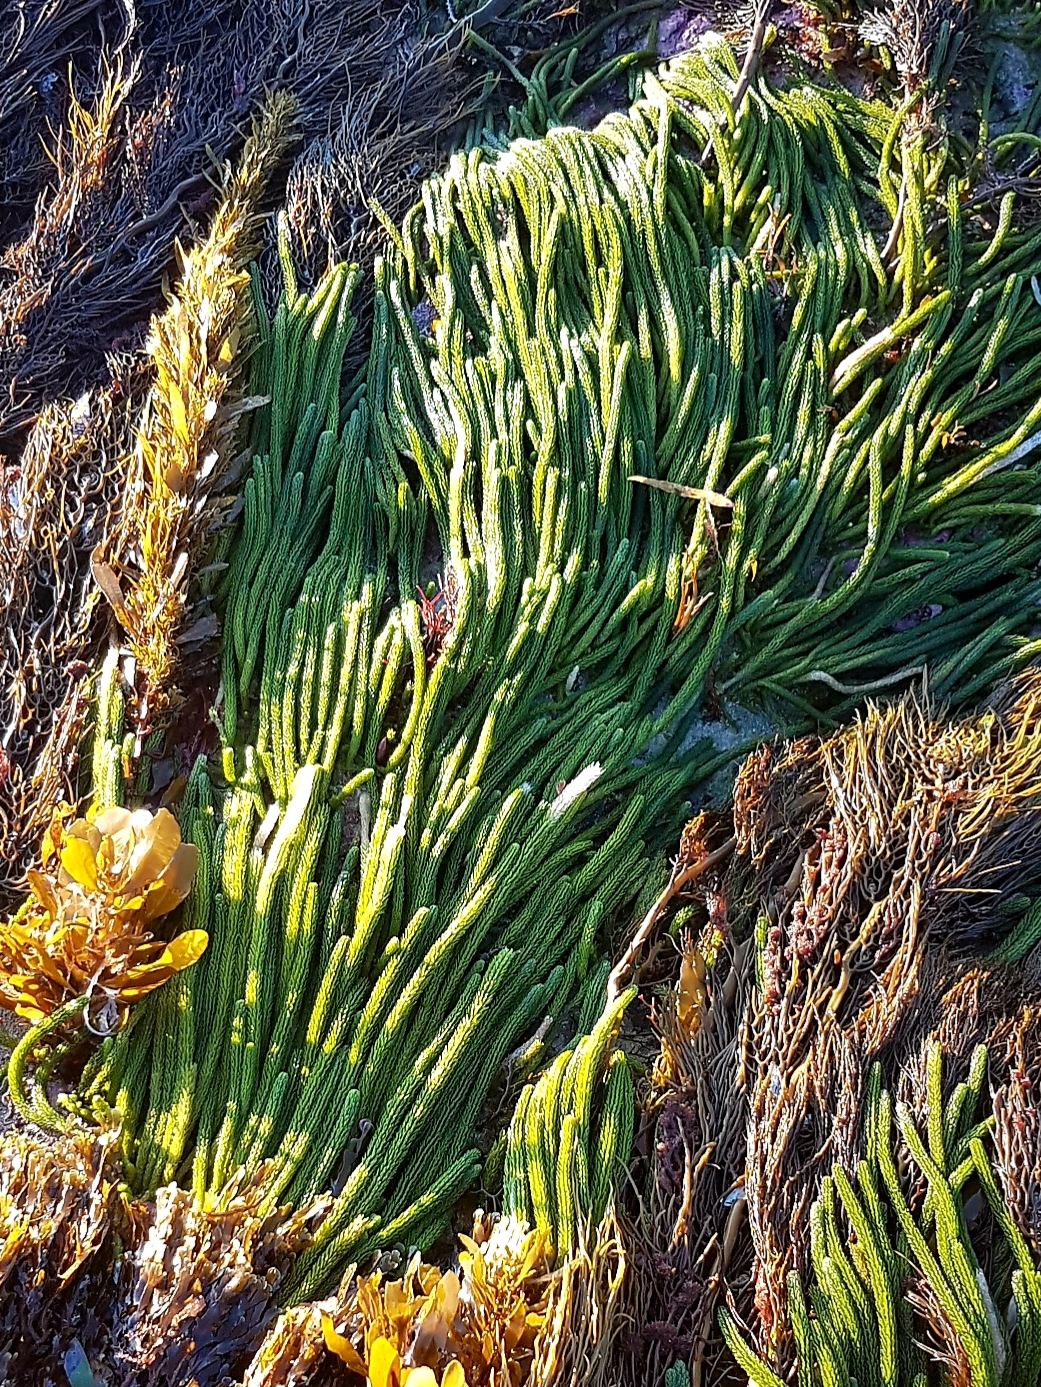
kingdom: Plantae
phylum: Chlorophyta
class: Ulvophyceae
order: Bryopsidales
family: Caulerpaceae
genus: Caulerpa
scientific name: Caulerpa brownii
